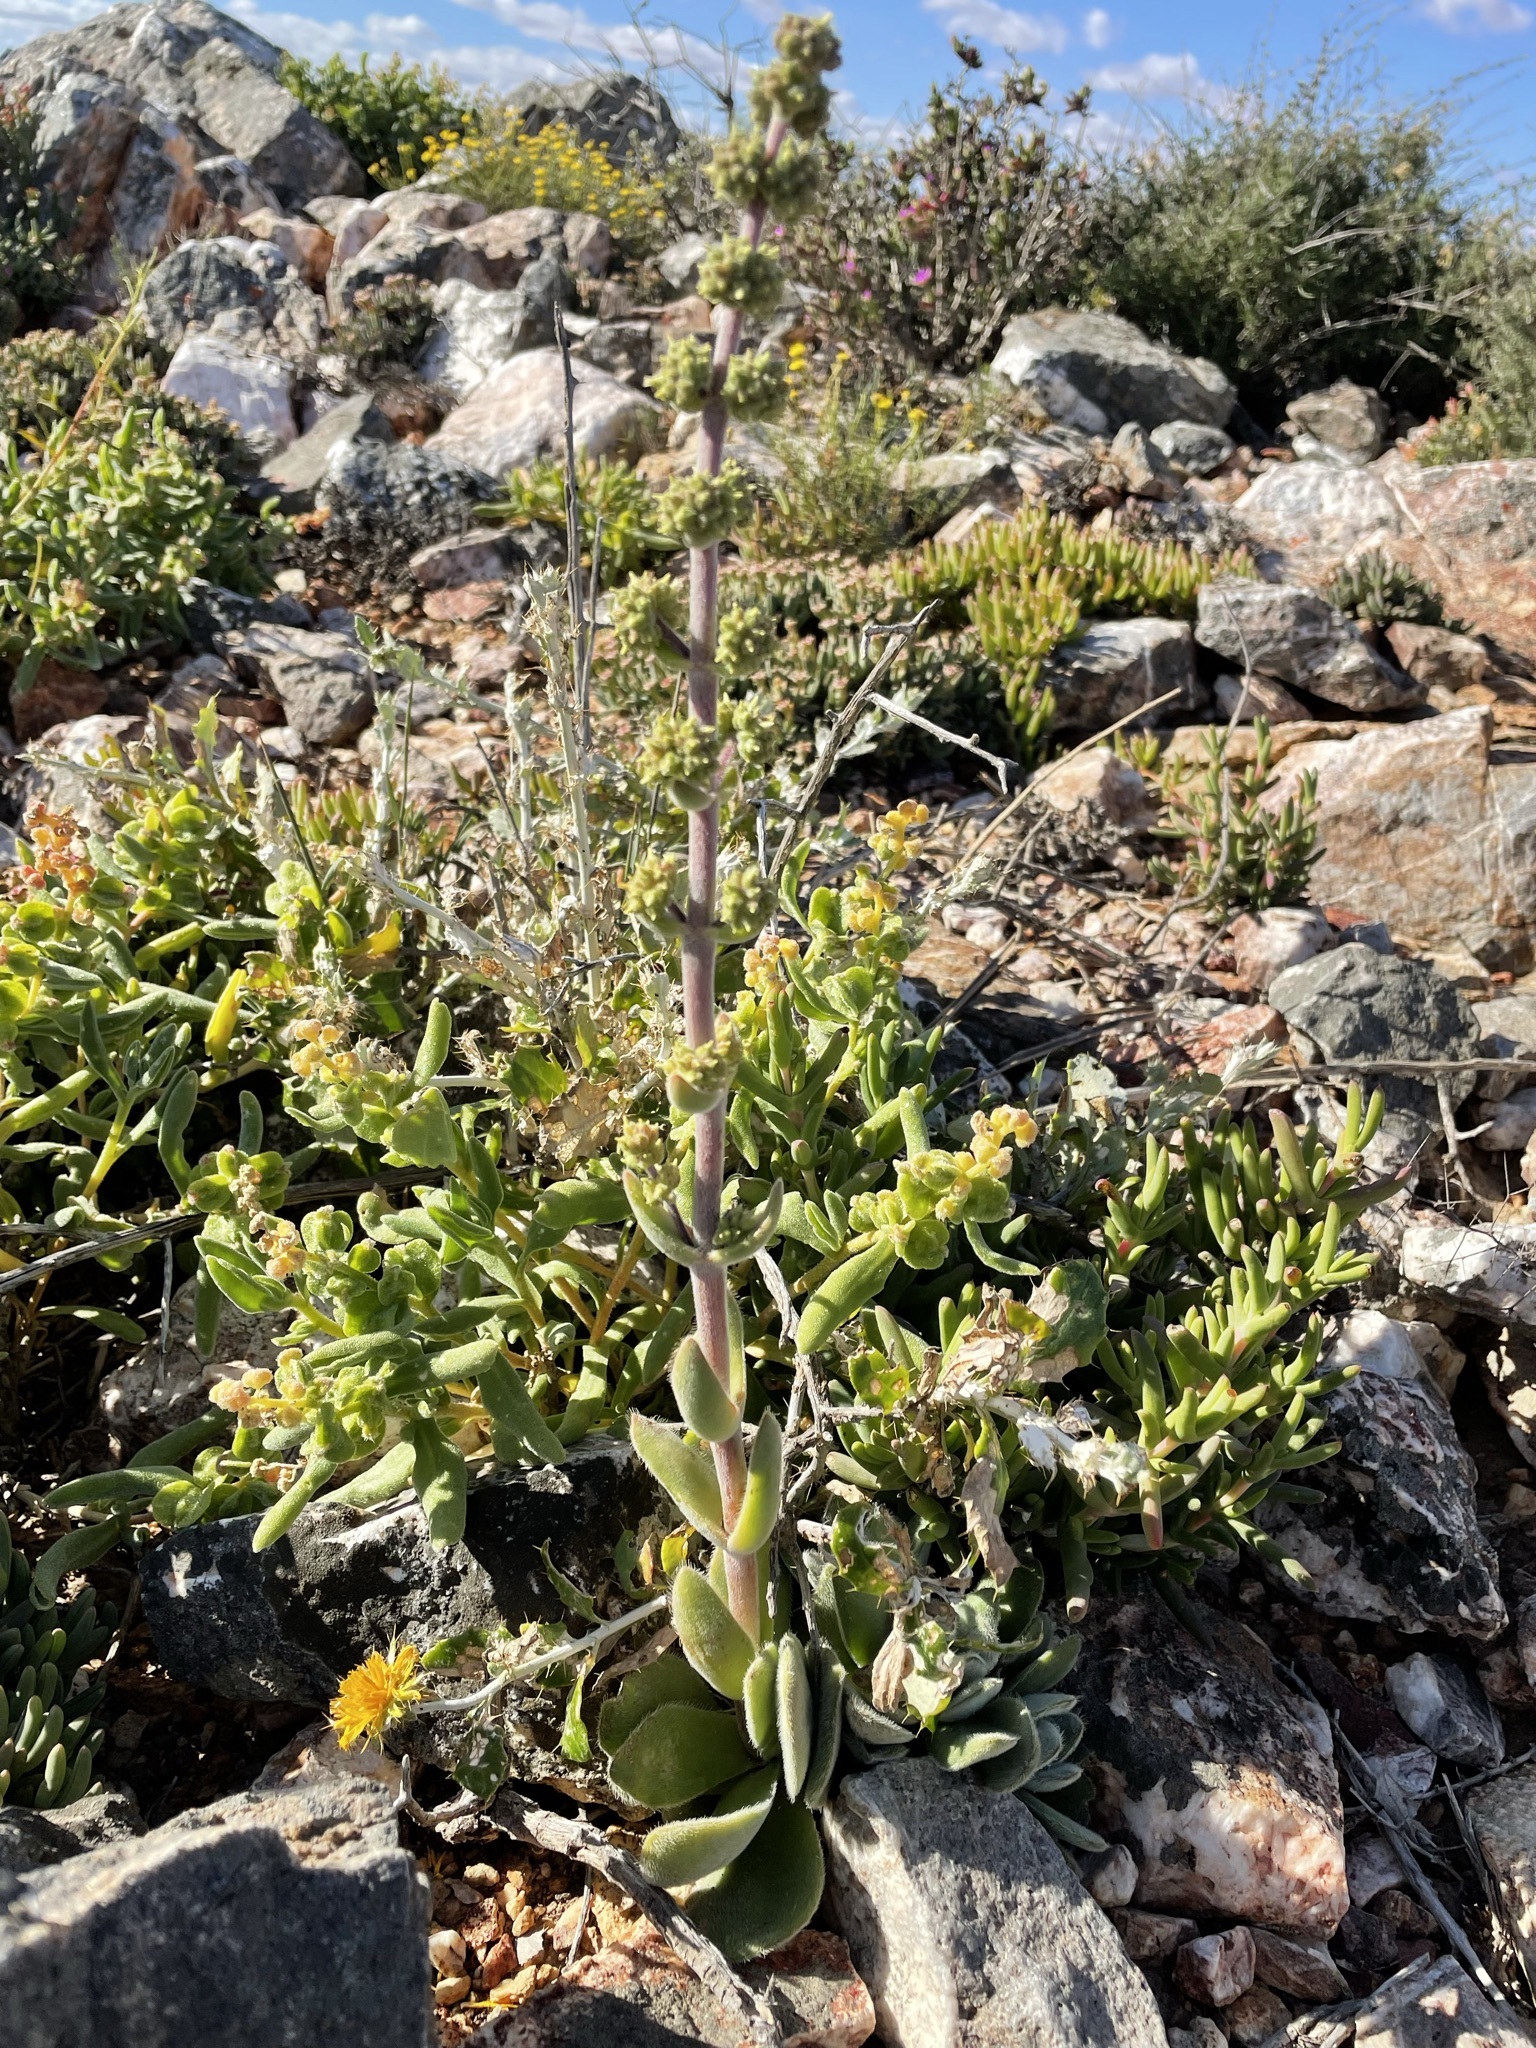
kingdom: Plantae
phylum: Tracheophyta
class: Magnoliopsida
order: Saxifragales
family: Crassulaceae
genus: Crassula
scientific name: Crassula tomentosa
